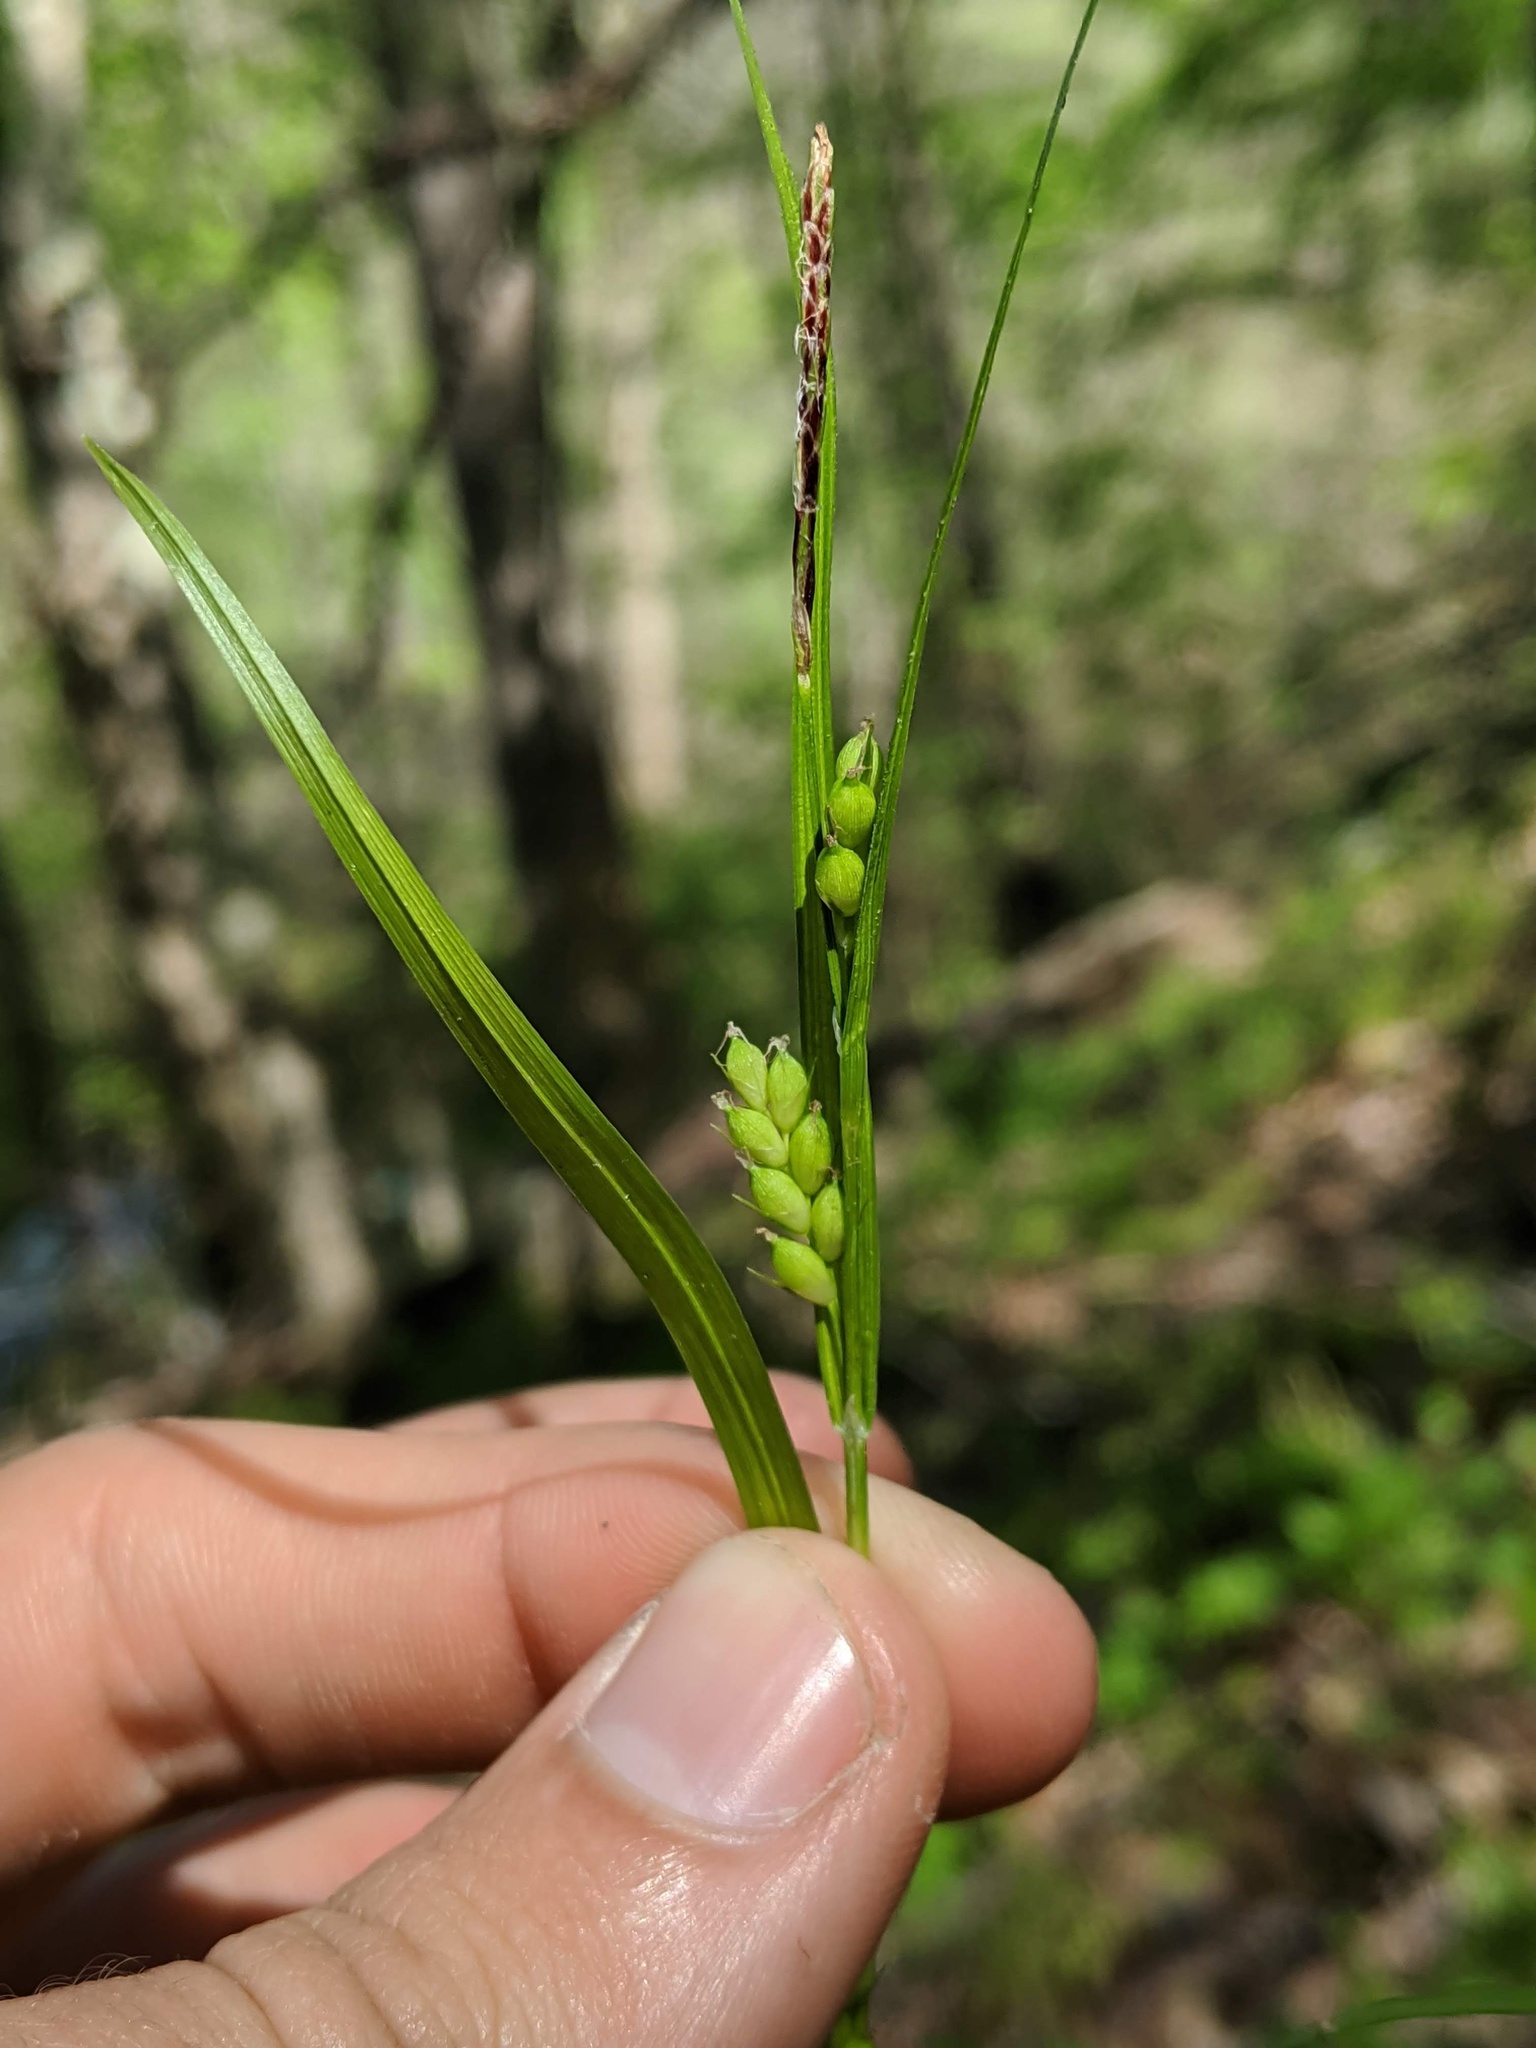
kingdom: Plantae
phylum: Tracheophyta
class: Liliopsida
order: Poales
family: Cyperaceae
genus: Carex
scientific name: Carex oligocarpa
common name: Eastern few-fruited sedge
